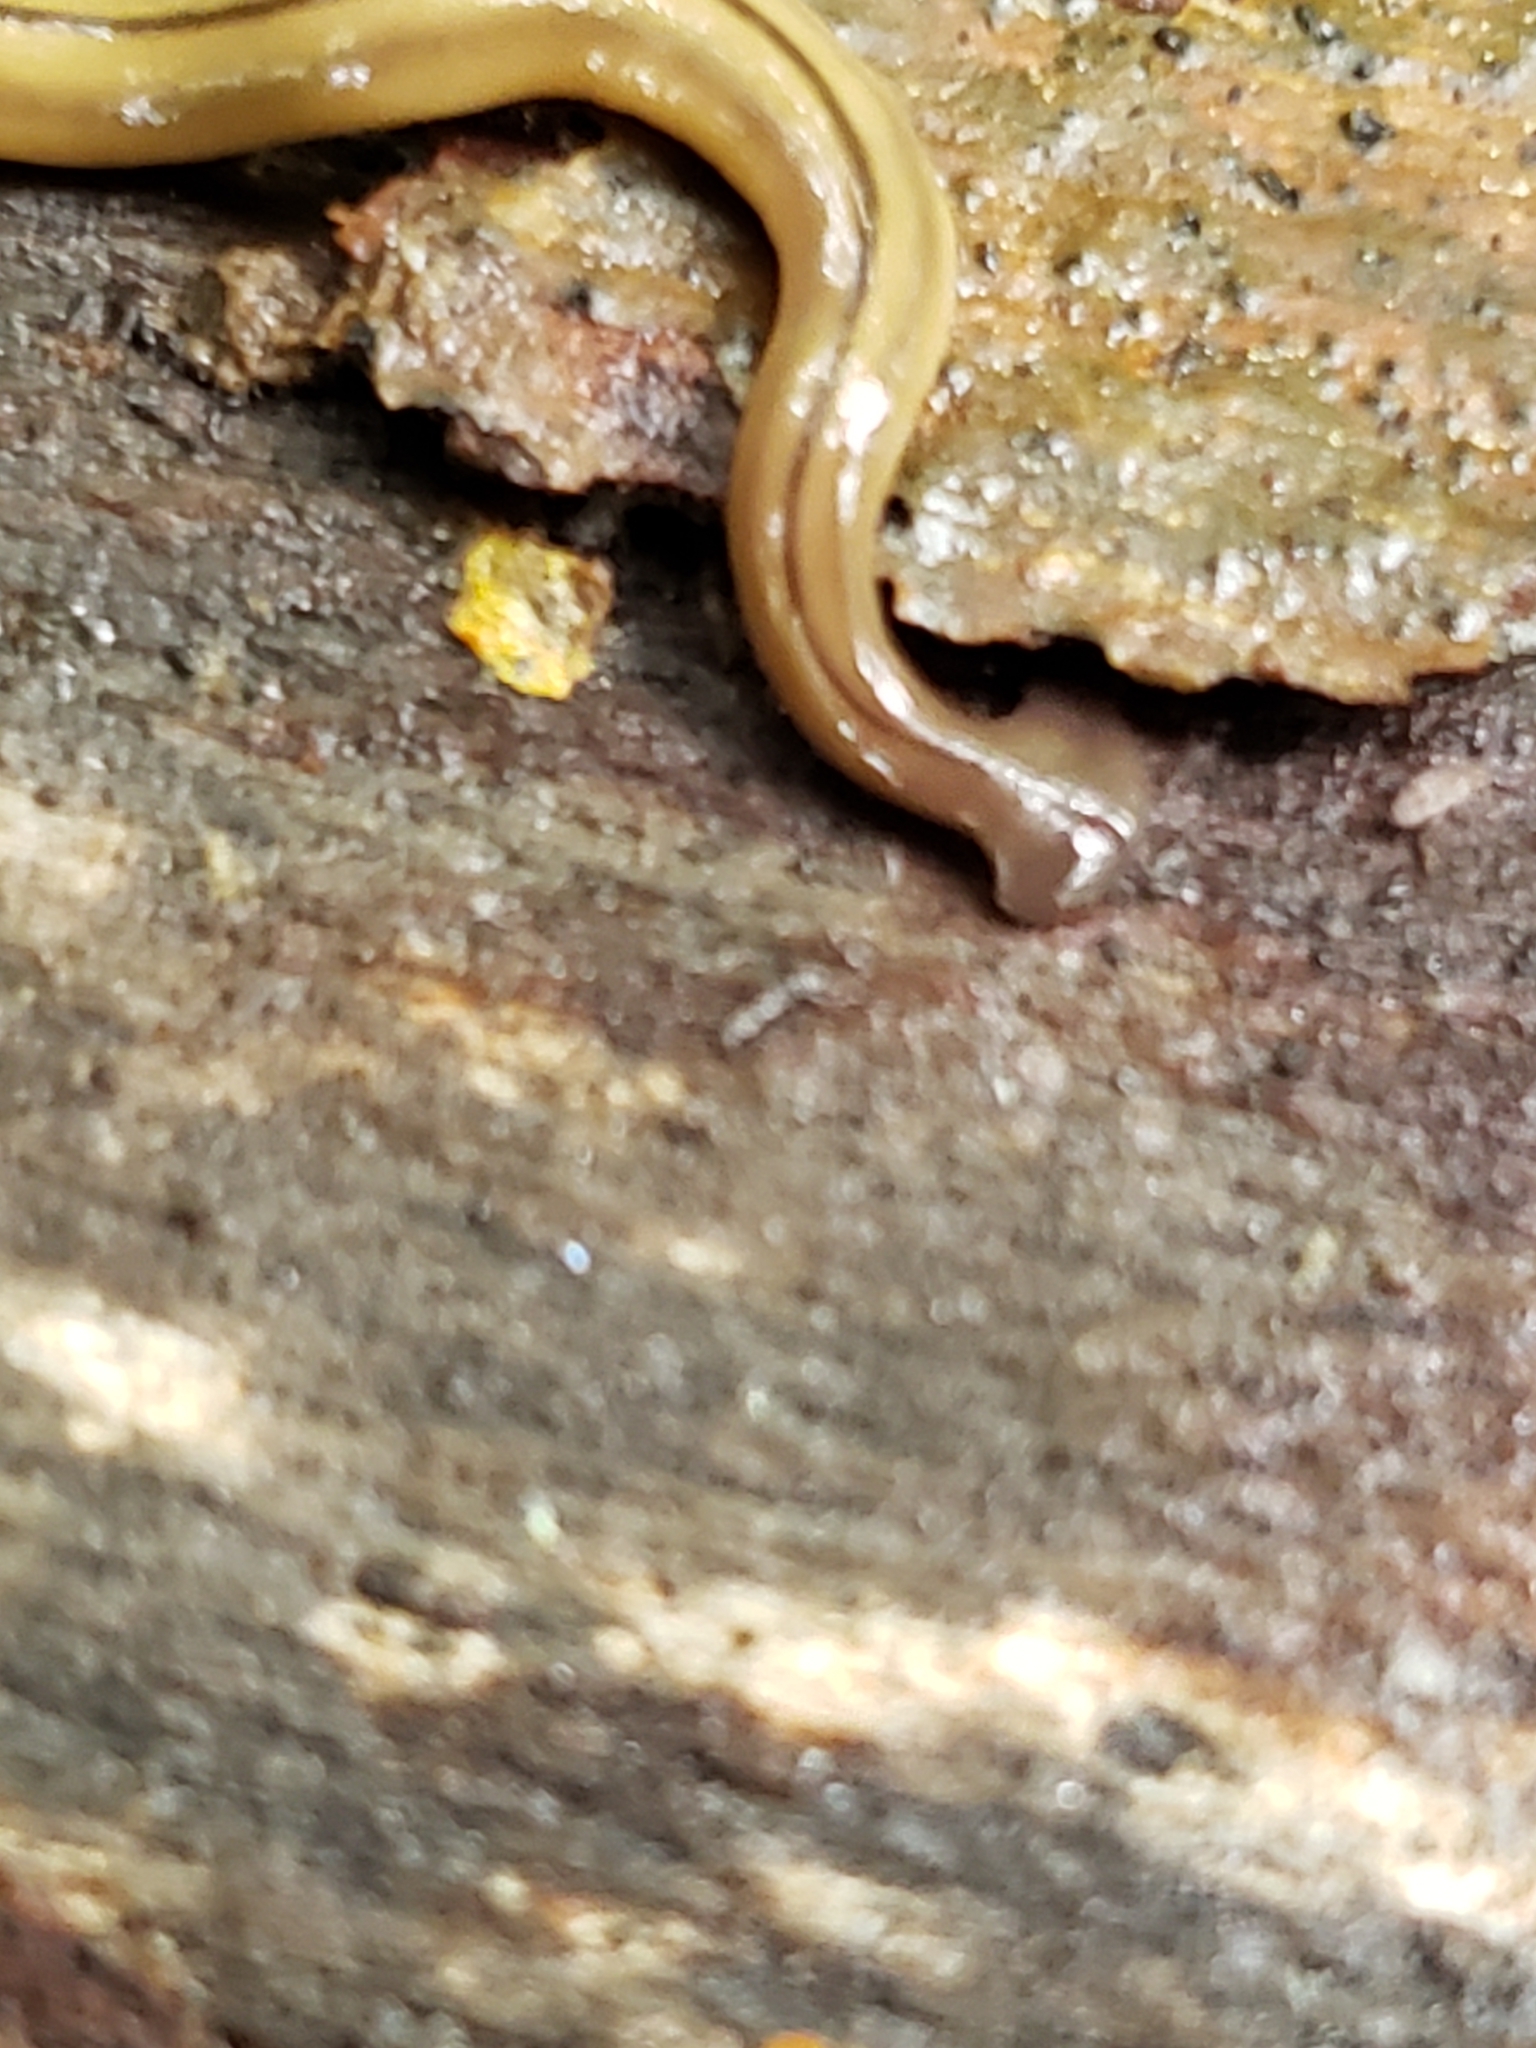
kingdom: Animalia
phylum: Platyhelminthes
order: Tricladida
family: Geoplanidae
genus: Bipalium
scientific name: Bipalium pennsylvanicum
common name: Three-lined land planarian
